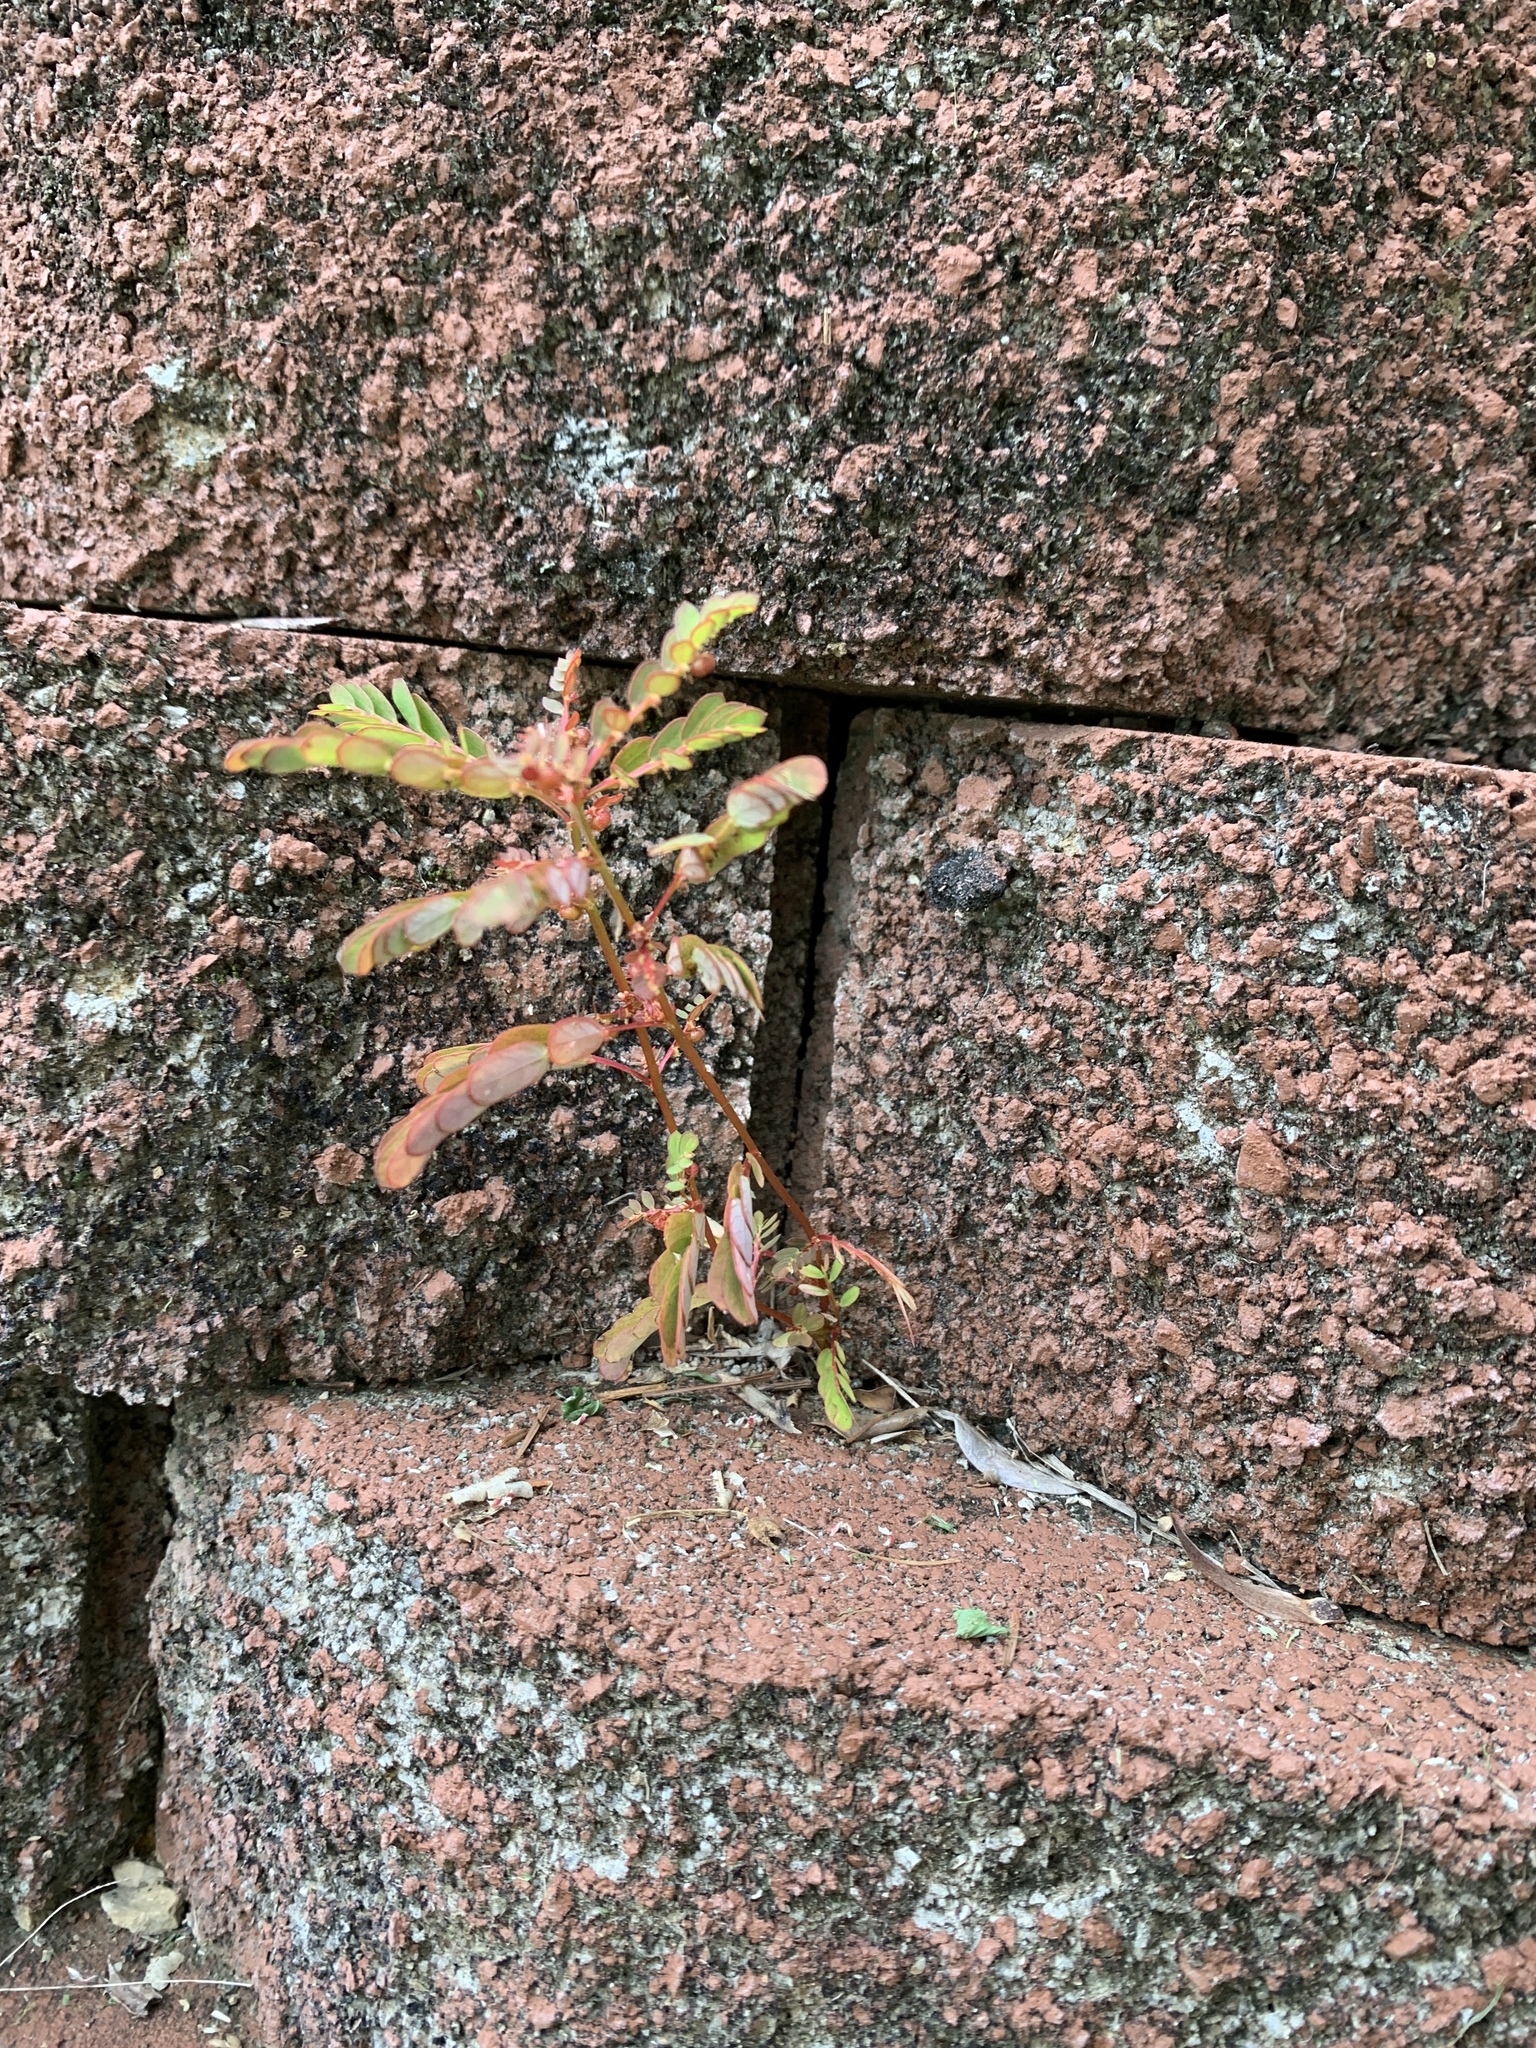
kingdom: Plantae
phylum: Tracheophyta
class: Magnoliopsida
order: Malpighiales
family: Phyllanthaceae
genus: Phyllanthus
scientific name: Phyllanthus urinaria
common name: Chamber bitter
